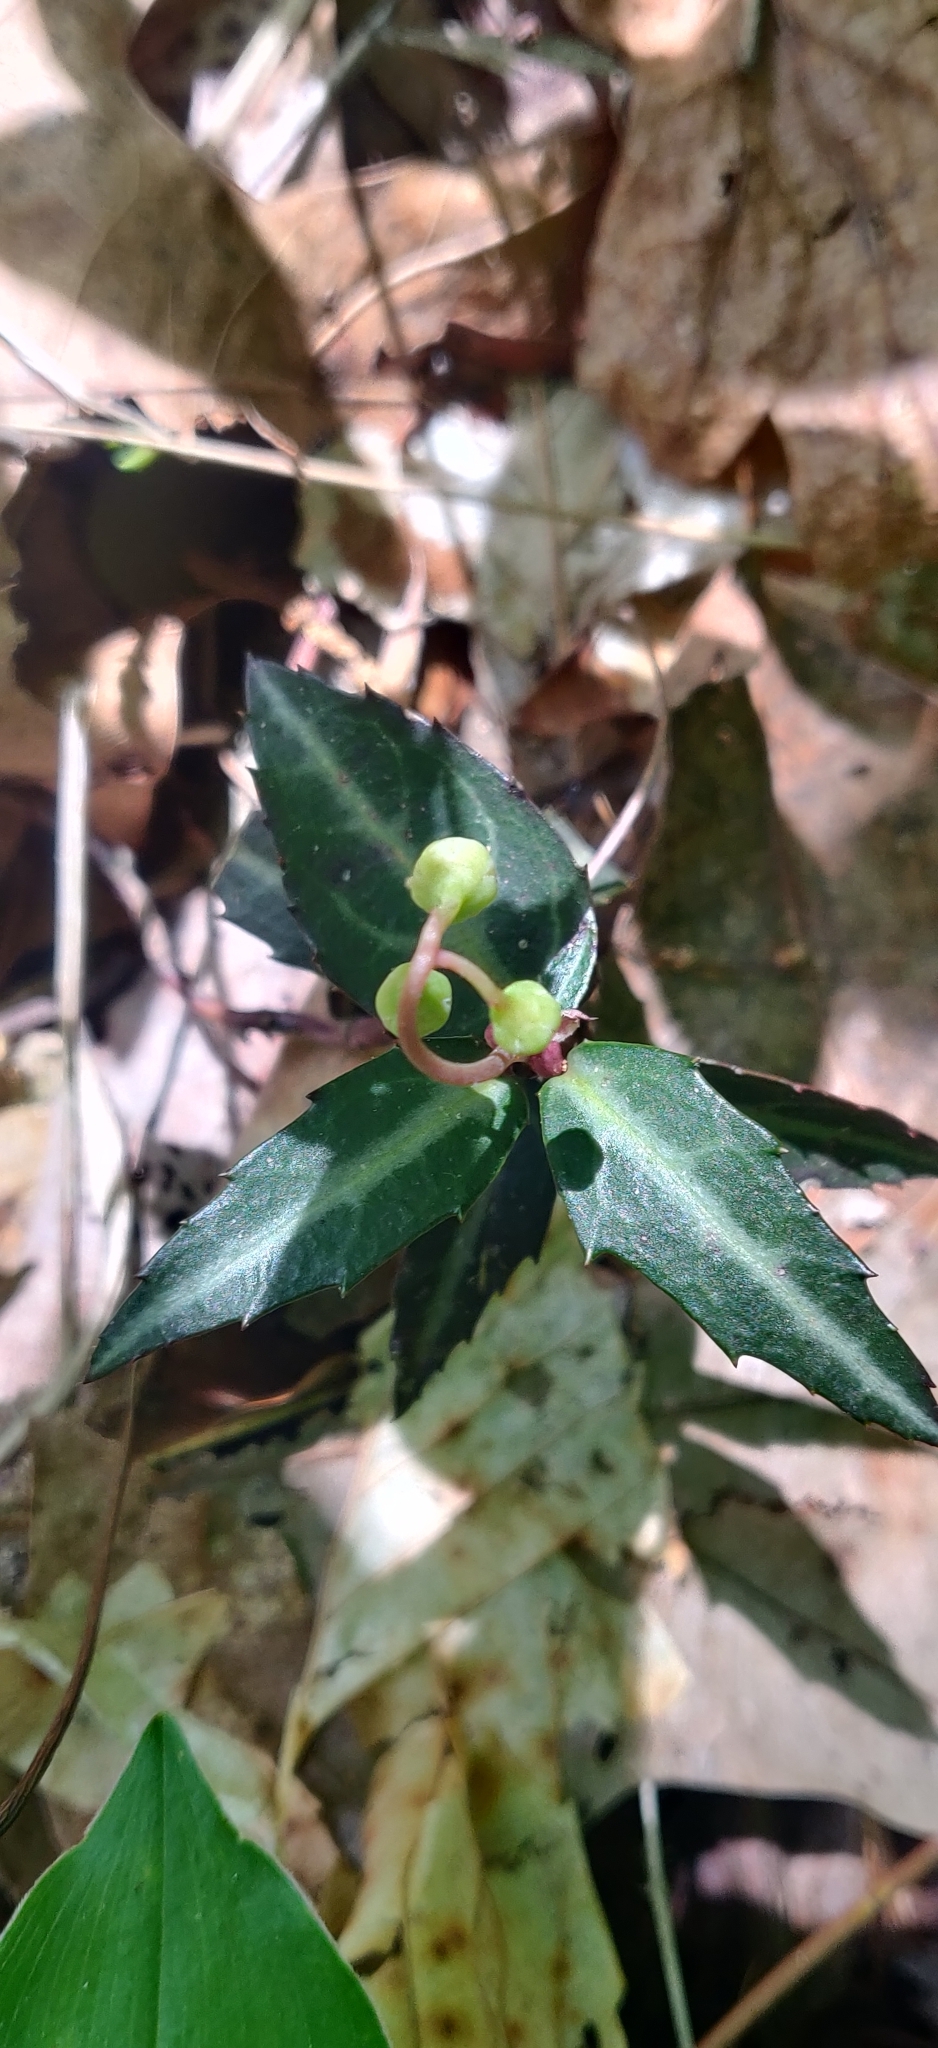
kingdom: Plantae
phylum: Tracheophyta
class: Magnoliopsida
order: Ericales
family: Ericaceae
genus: Chimaphila
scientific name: Chimaphila maculata
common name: Spotted pipsissewa
